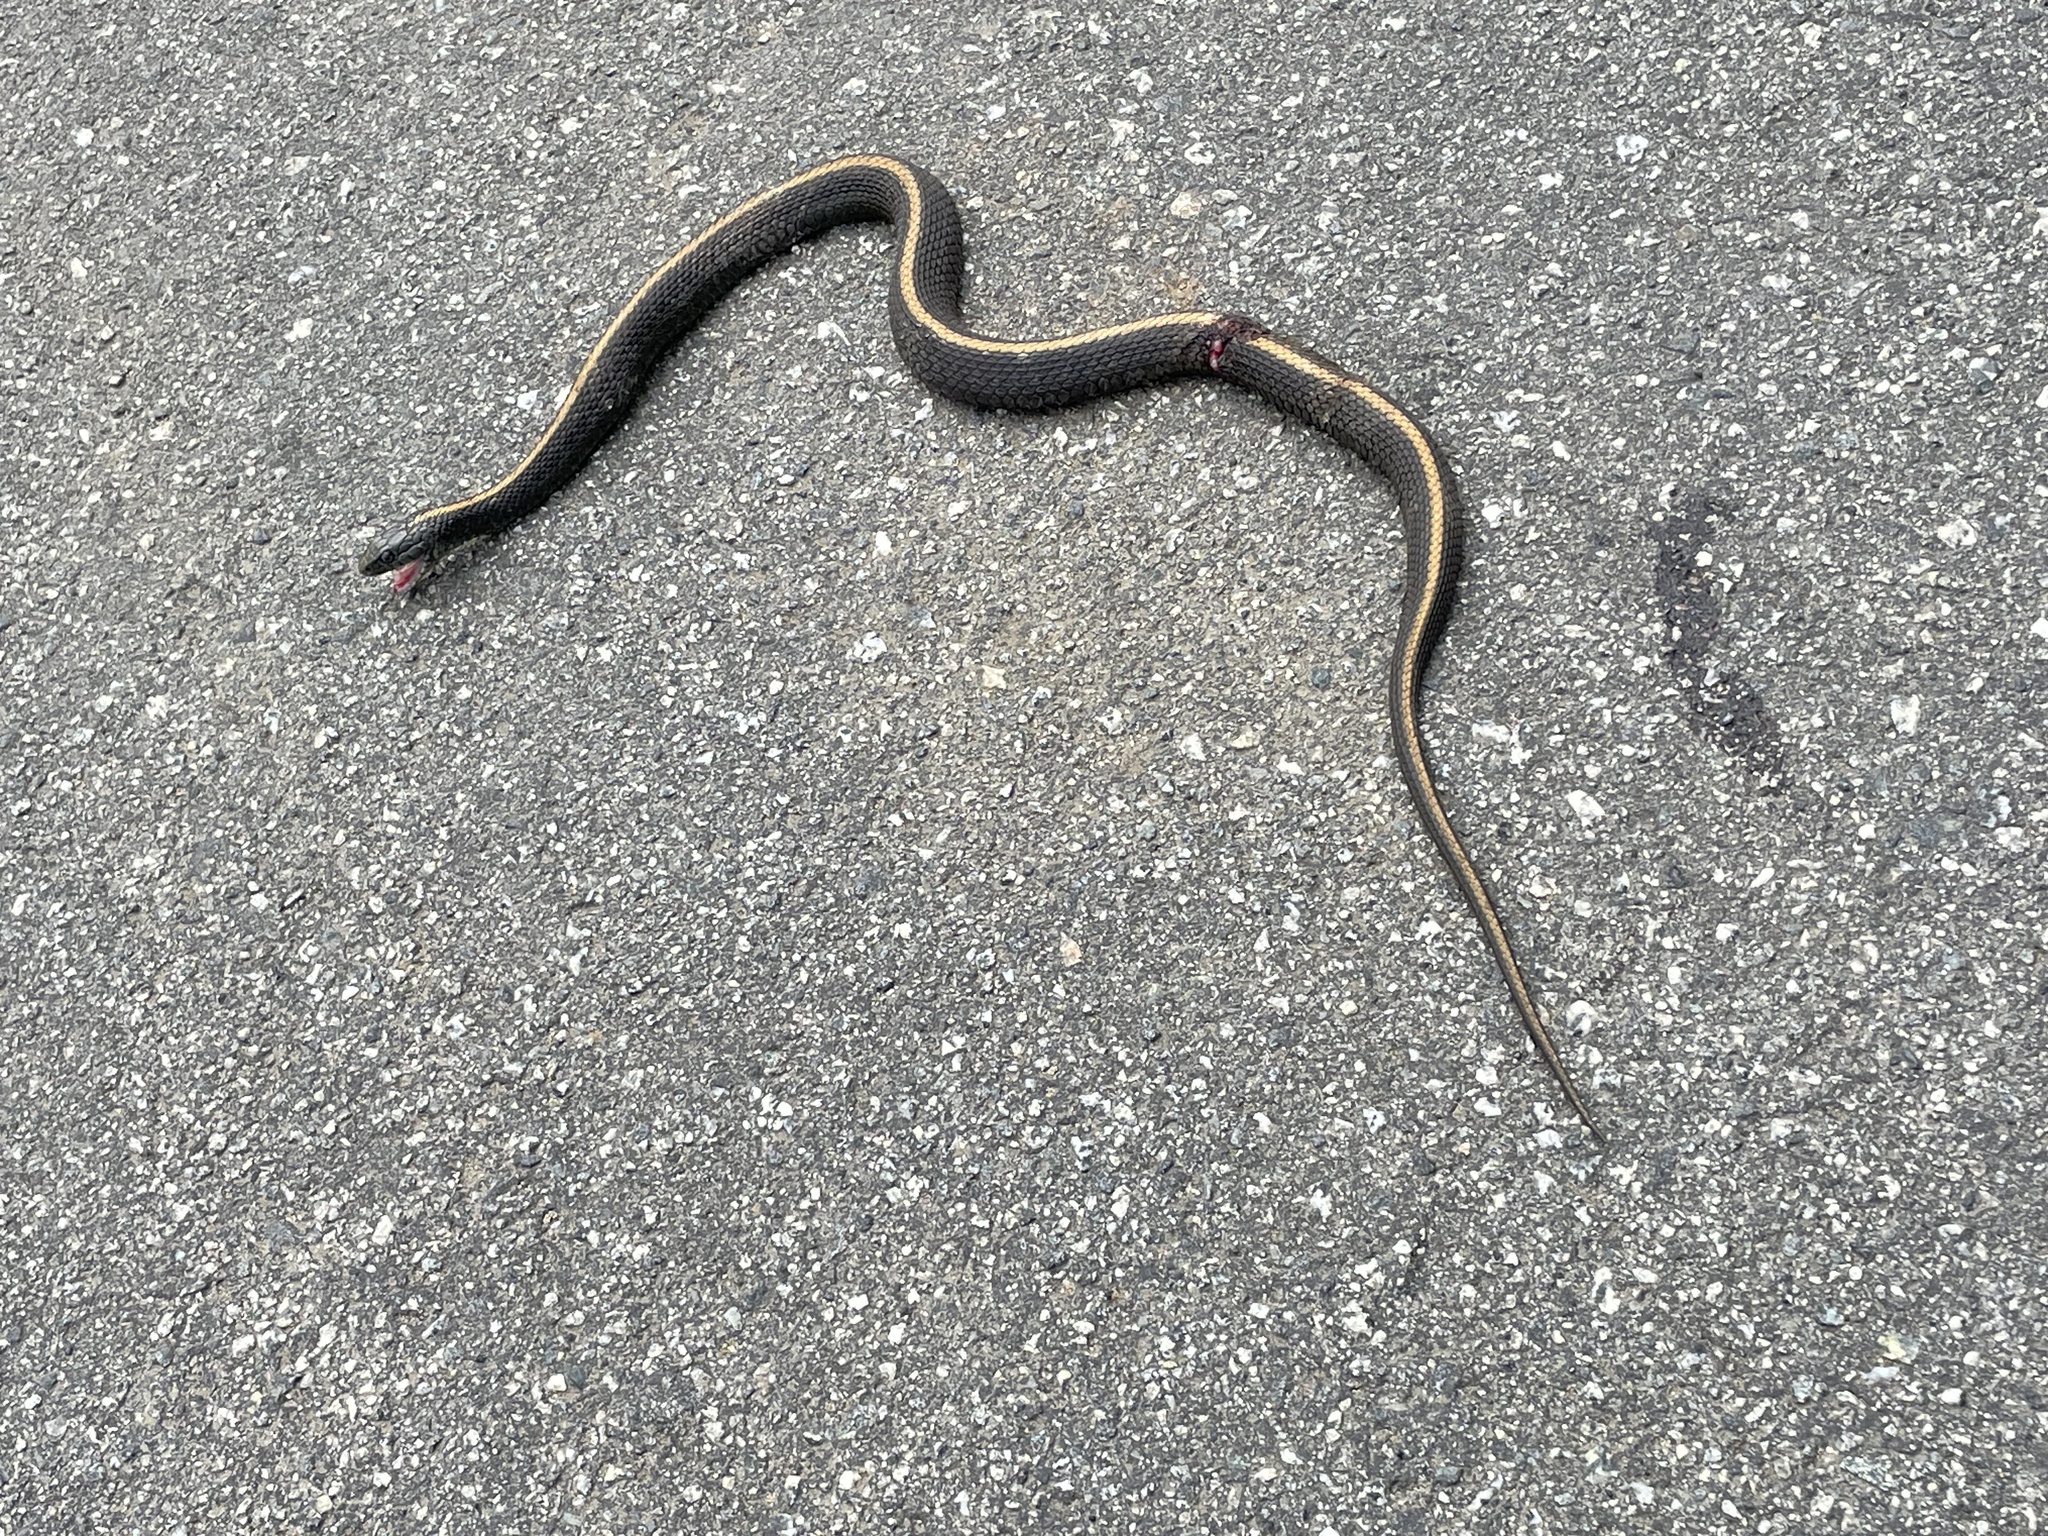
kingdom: Animalia
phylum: Chordata
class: Squamata
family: Colubridae
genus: Thamnophis
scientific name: Thamnophis atratus
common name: Pacific coast aquatic garter snake
